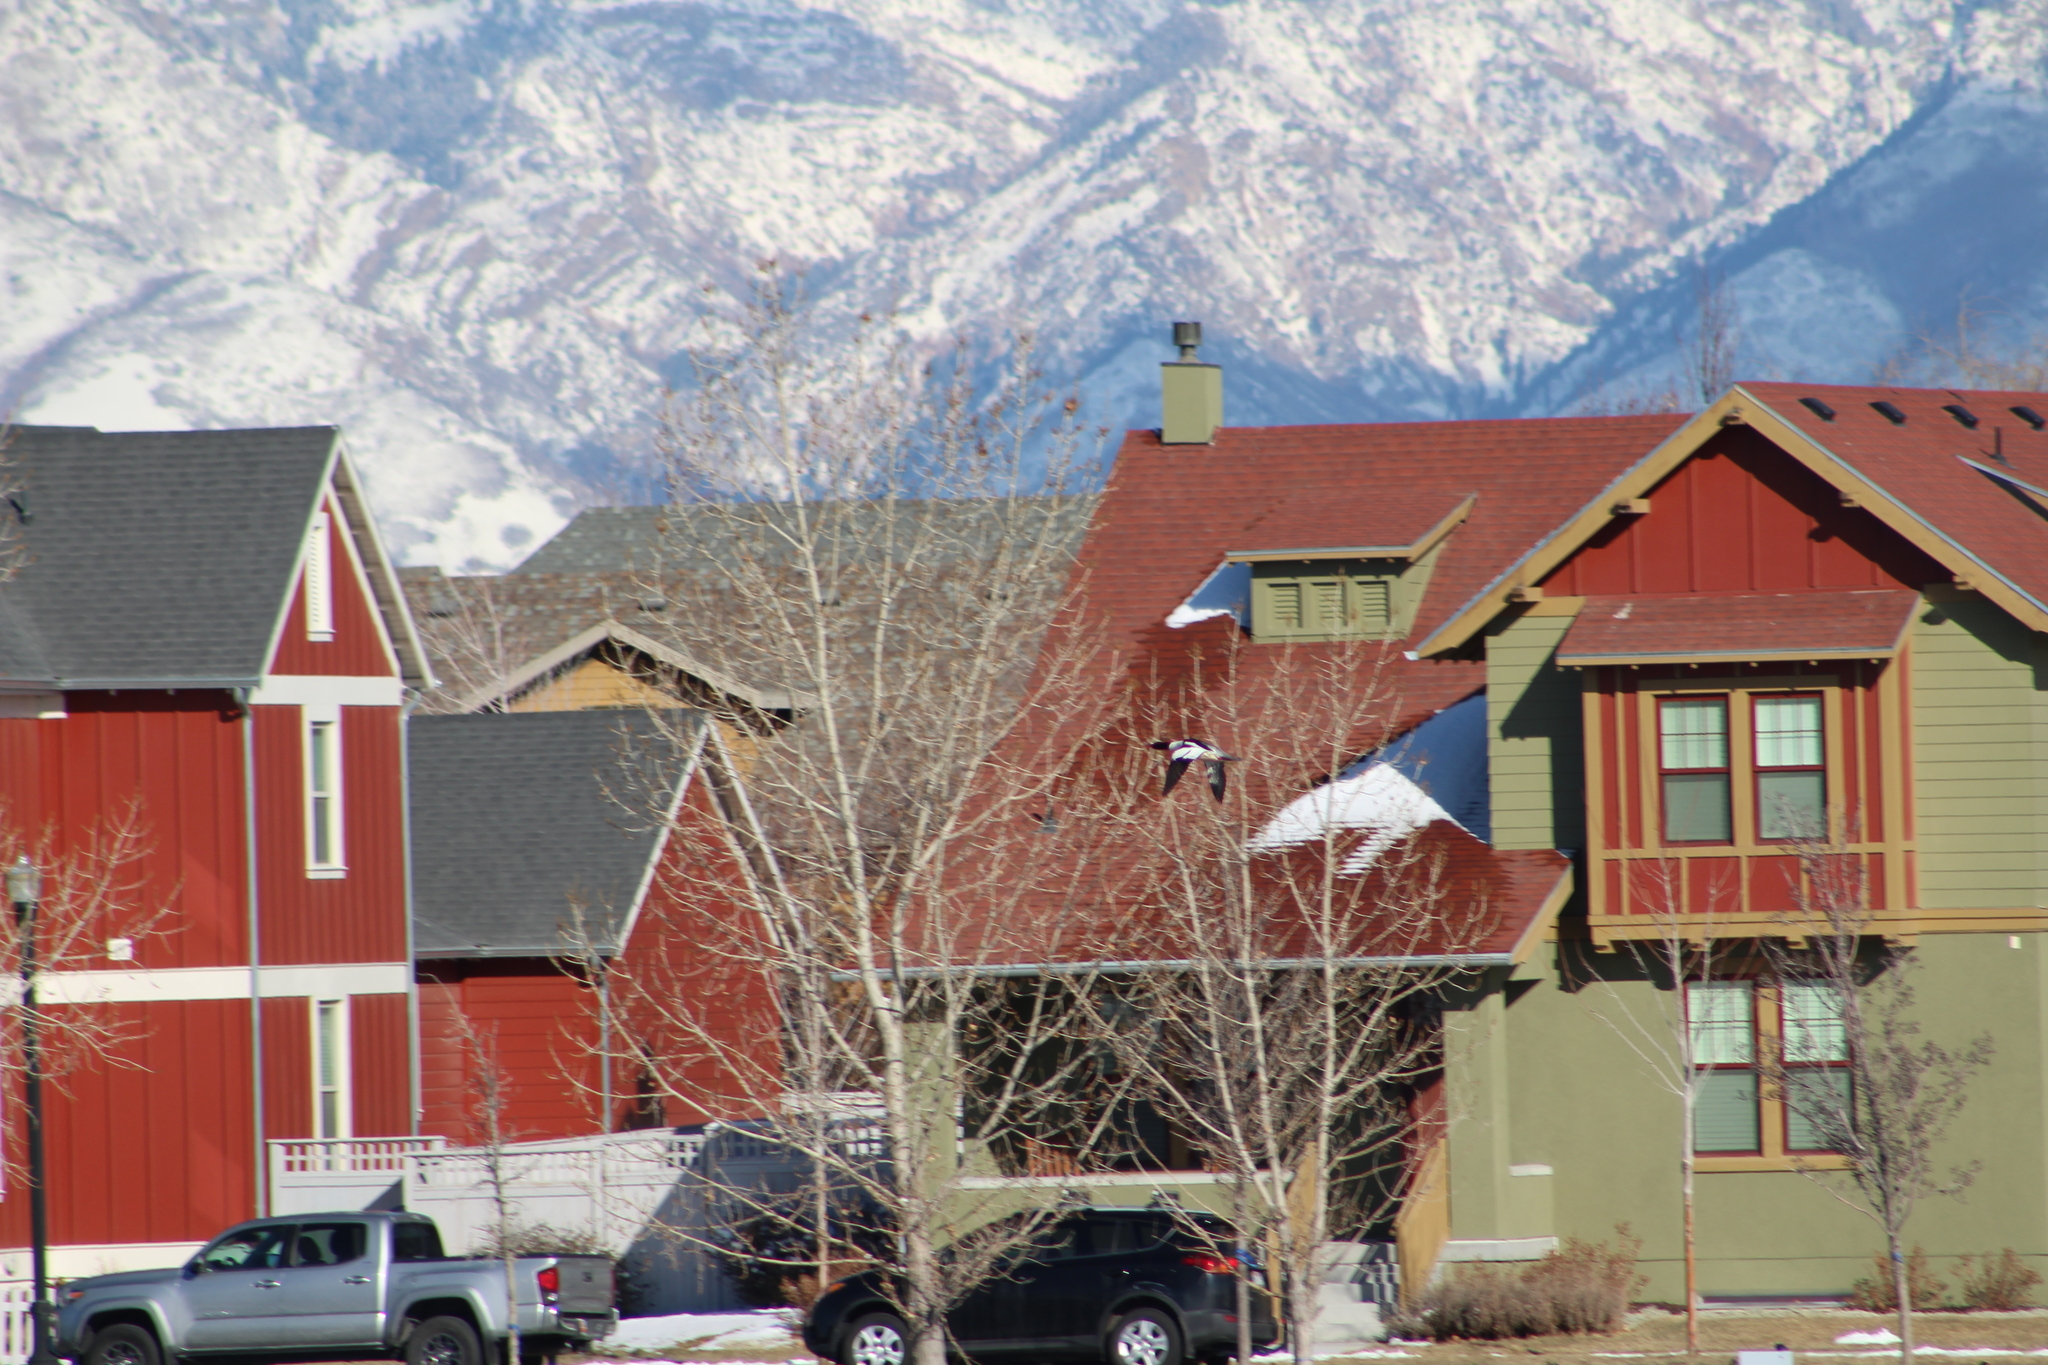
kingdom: Animalia
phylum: Chordata
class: Aves
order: Anseriformes
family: Anatidae
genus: Mergus
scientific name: Mergus merganser
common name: Common merganser
